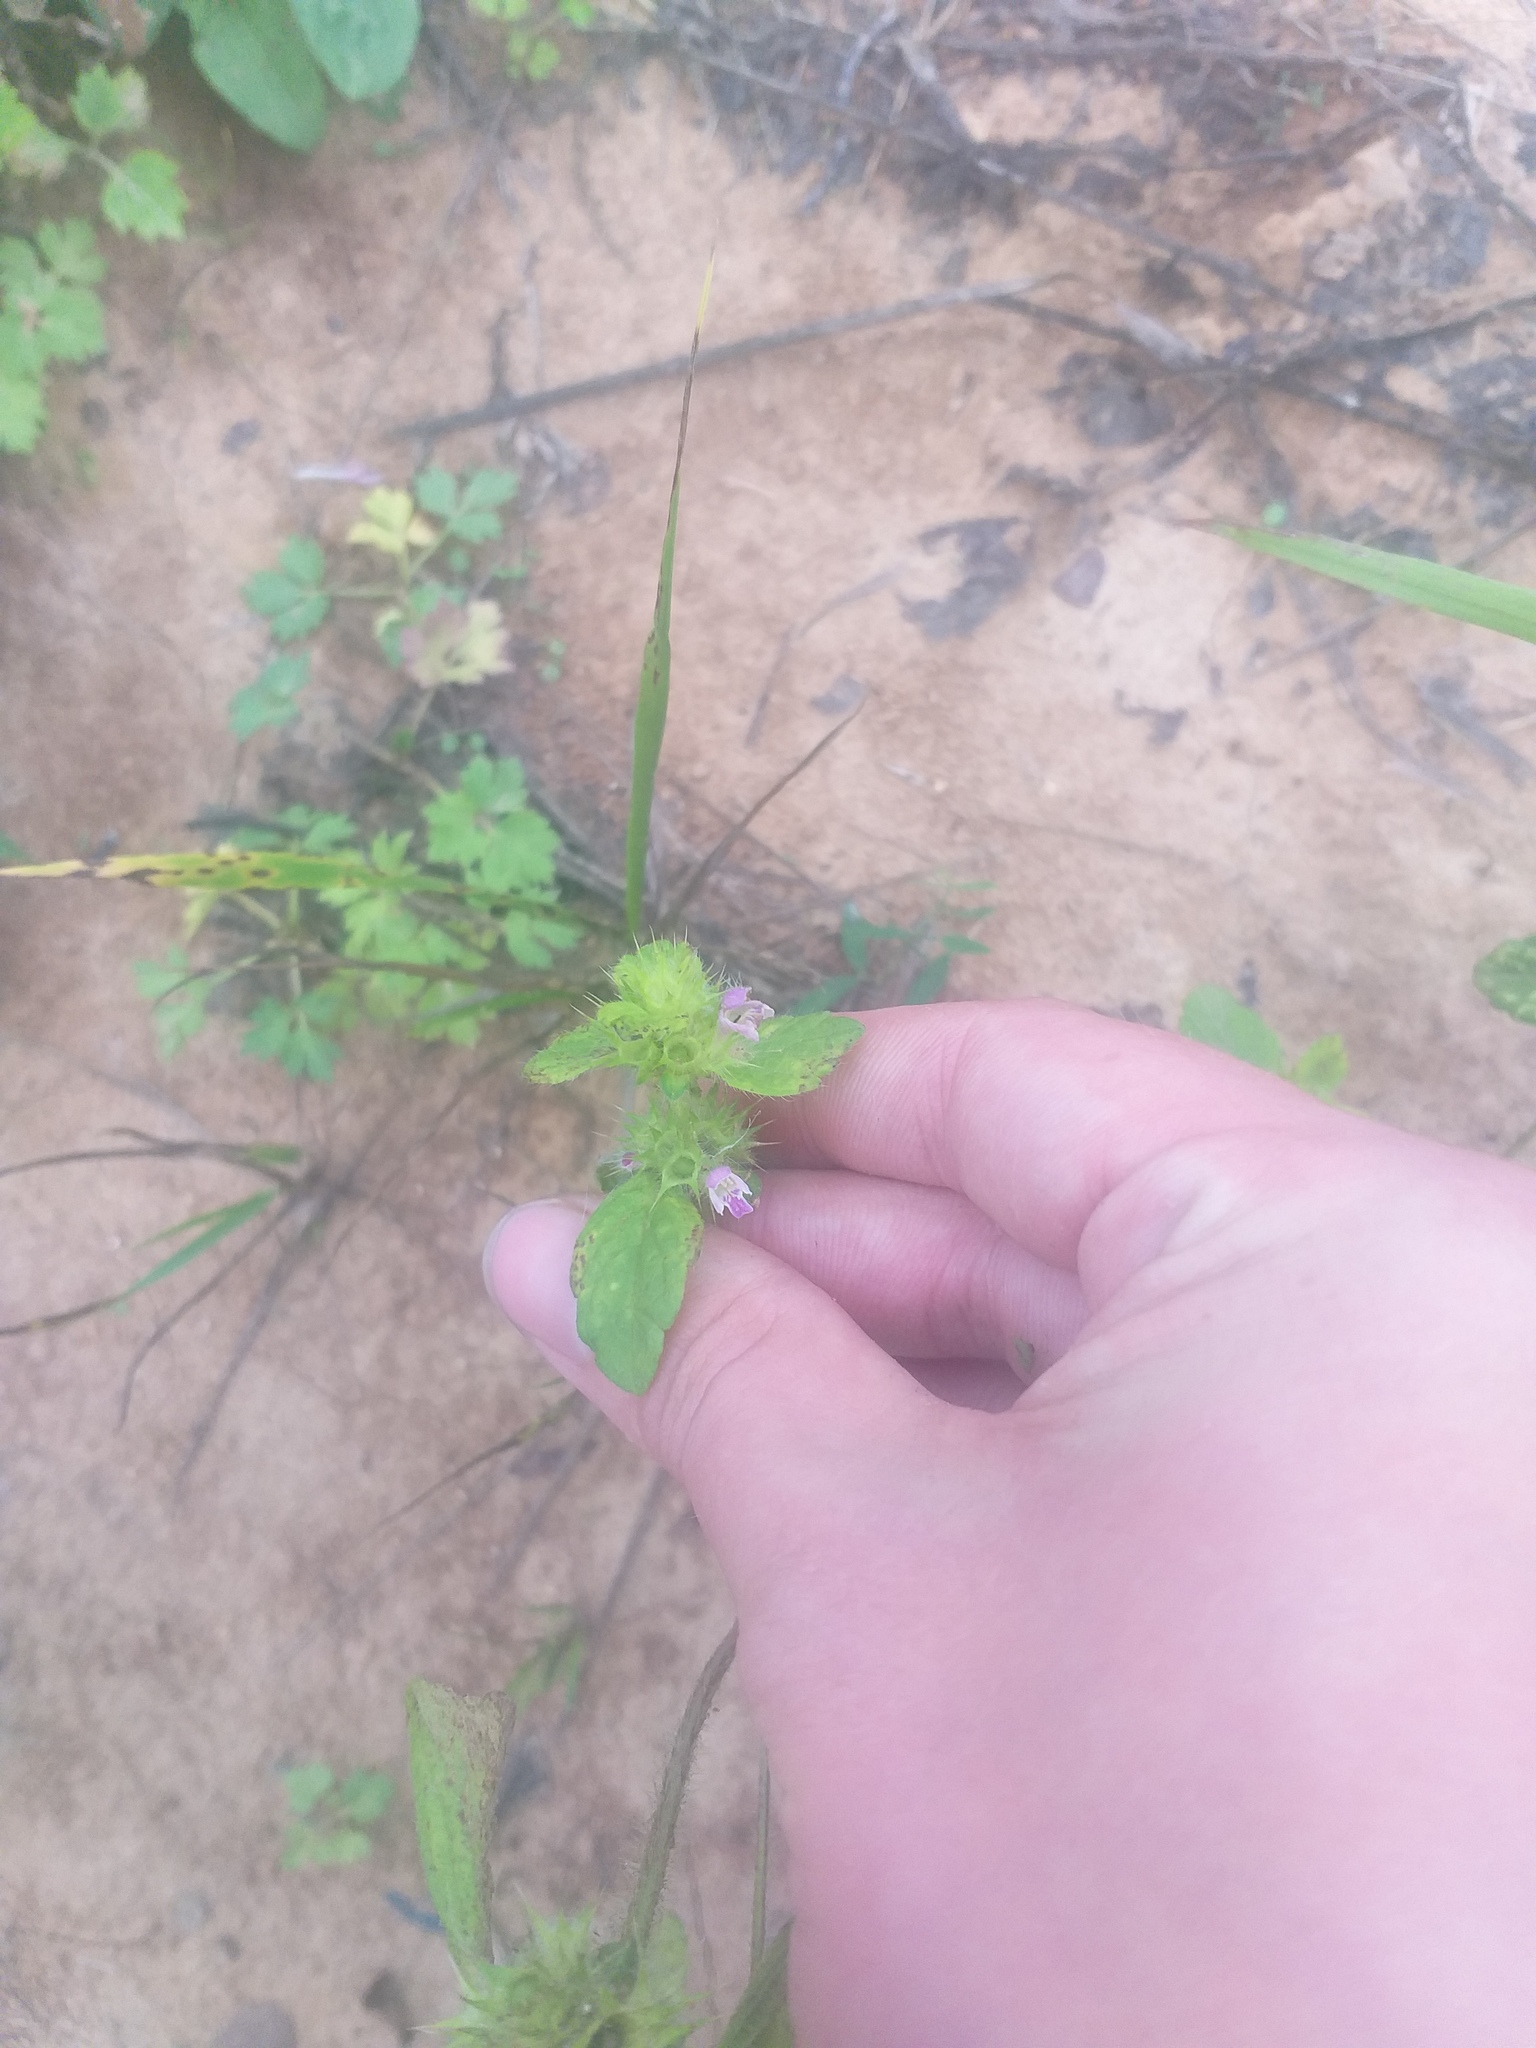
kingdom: Plantae
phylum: Tracheophyta
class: Magnoliopsida
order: Lamiales
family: Lamiaceae
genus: Galeopsis
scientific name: Galeopsis bifida
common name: Bifid hemp-nettle
